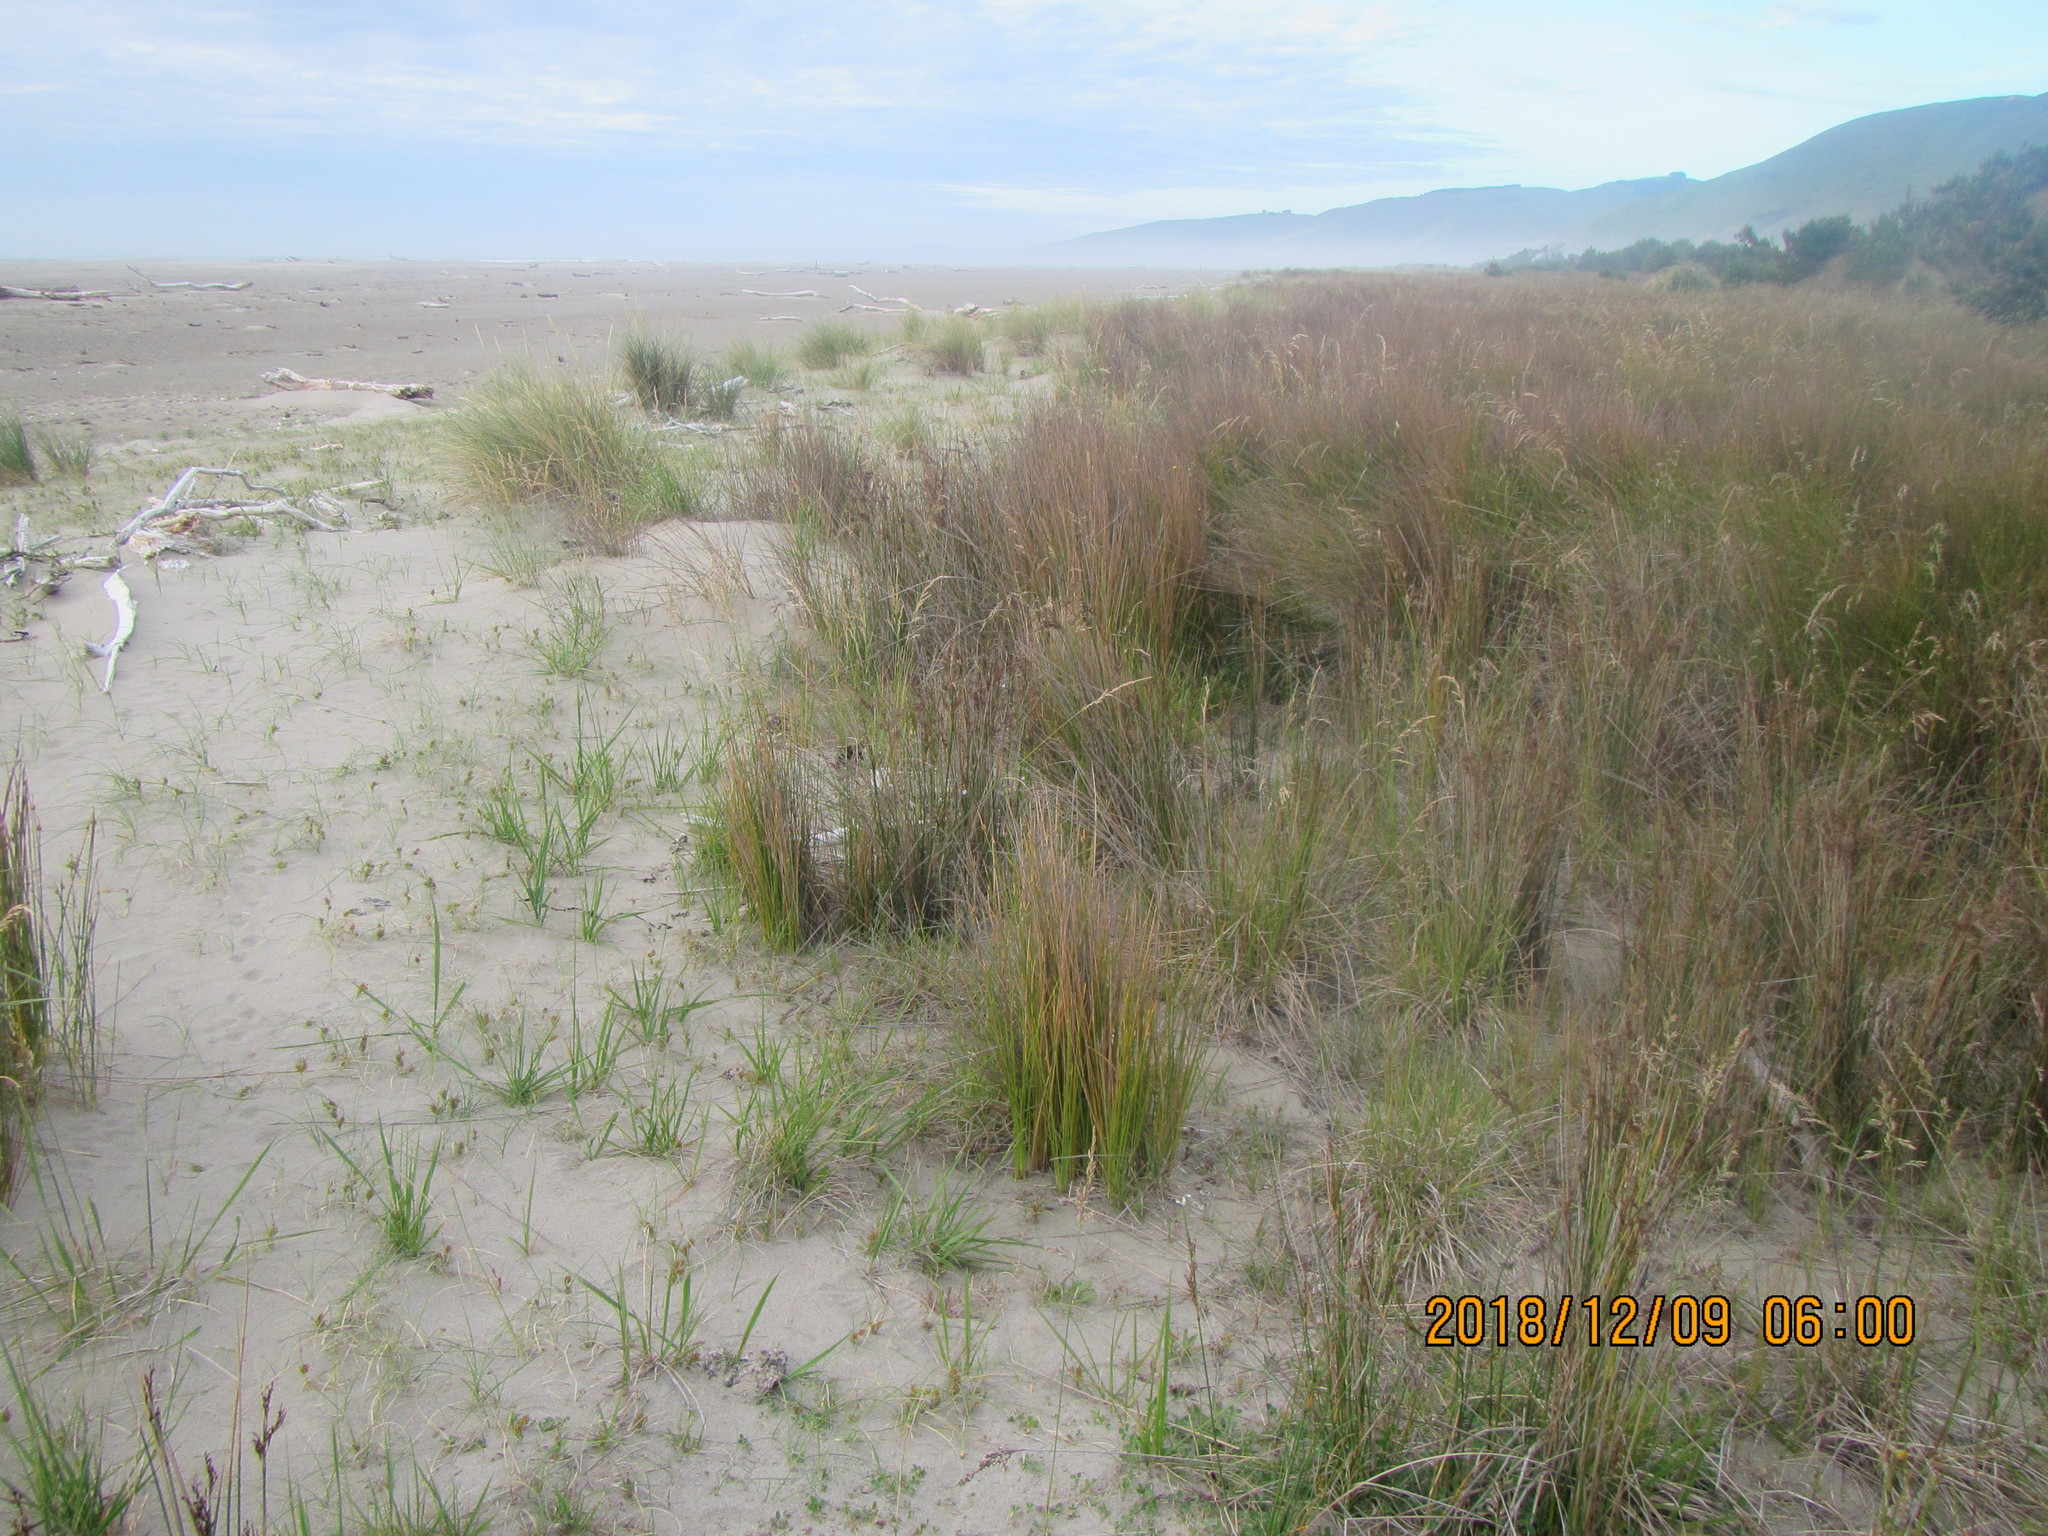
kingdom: Plantae
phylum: Tracheophyta
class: Liliopsida
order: Poales
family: Juncaceae
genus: Juncus
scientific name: Juncus kraussii
